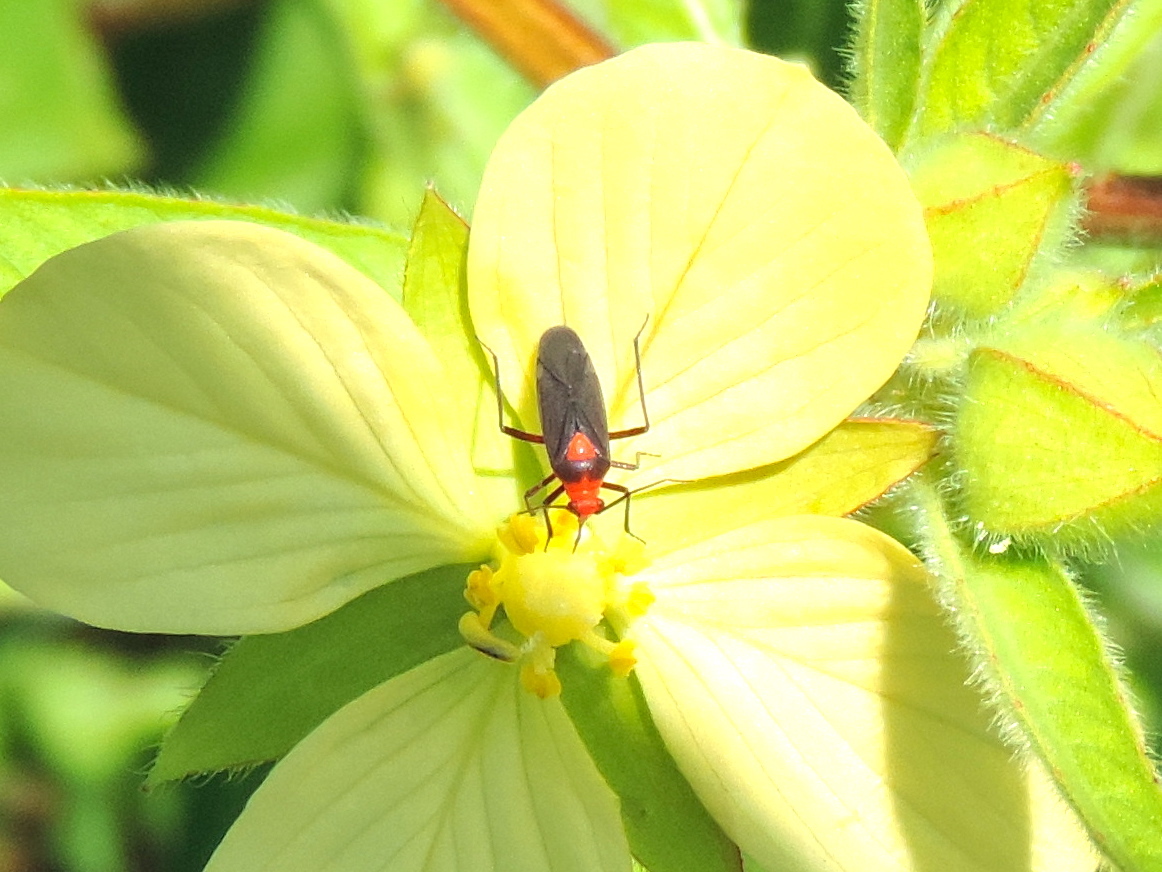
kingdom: Animalia
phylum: Arthropoda
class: Insecta
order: Hemiptera
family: Miridae
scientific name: Miridae
